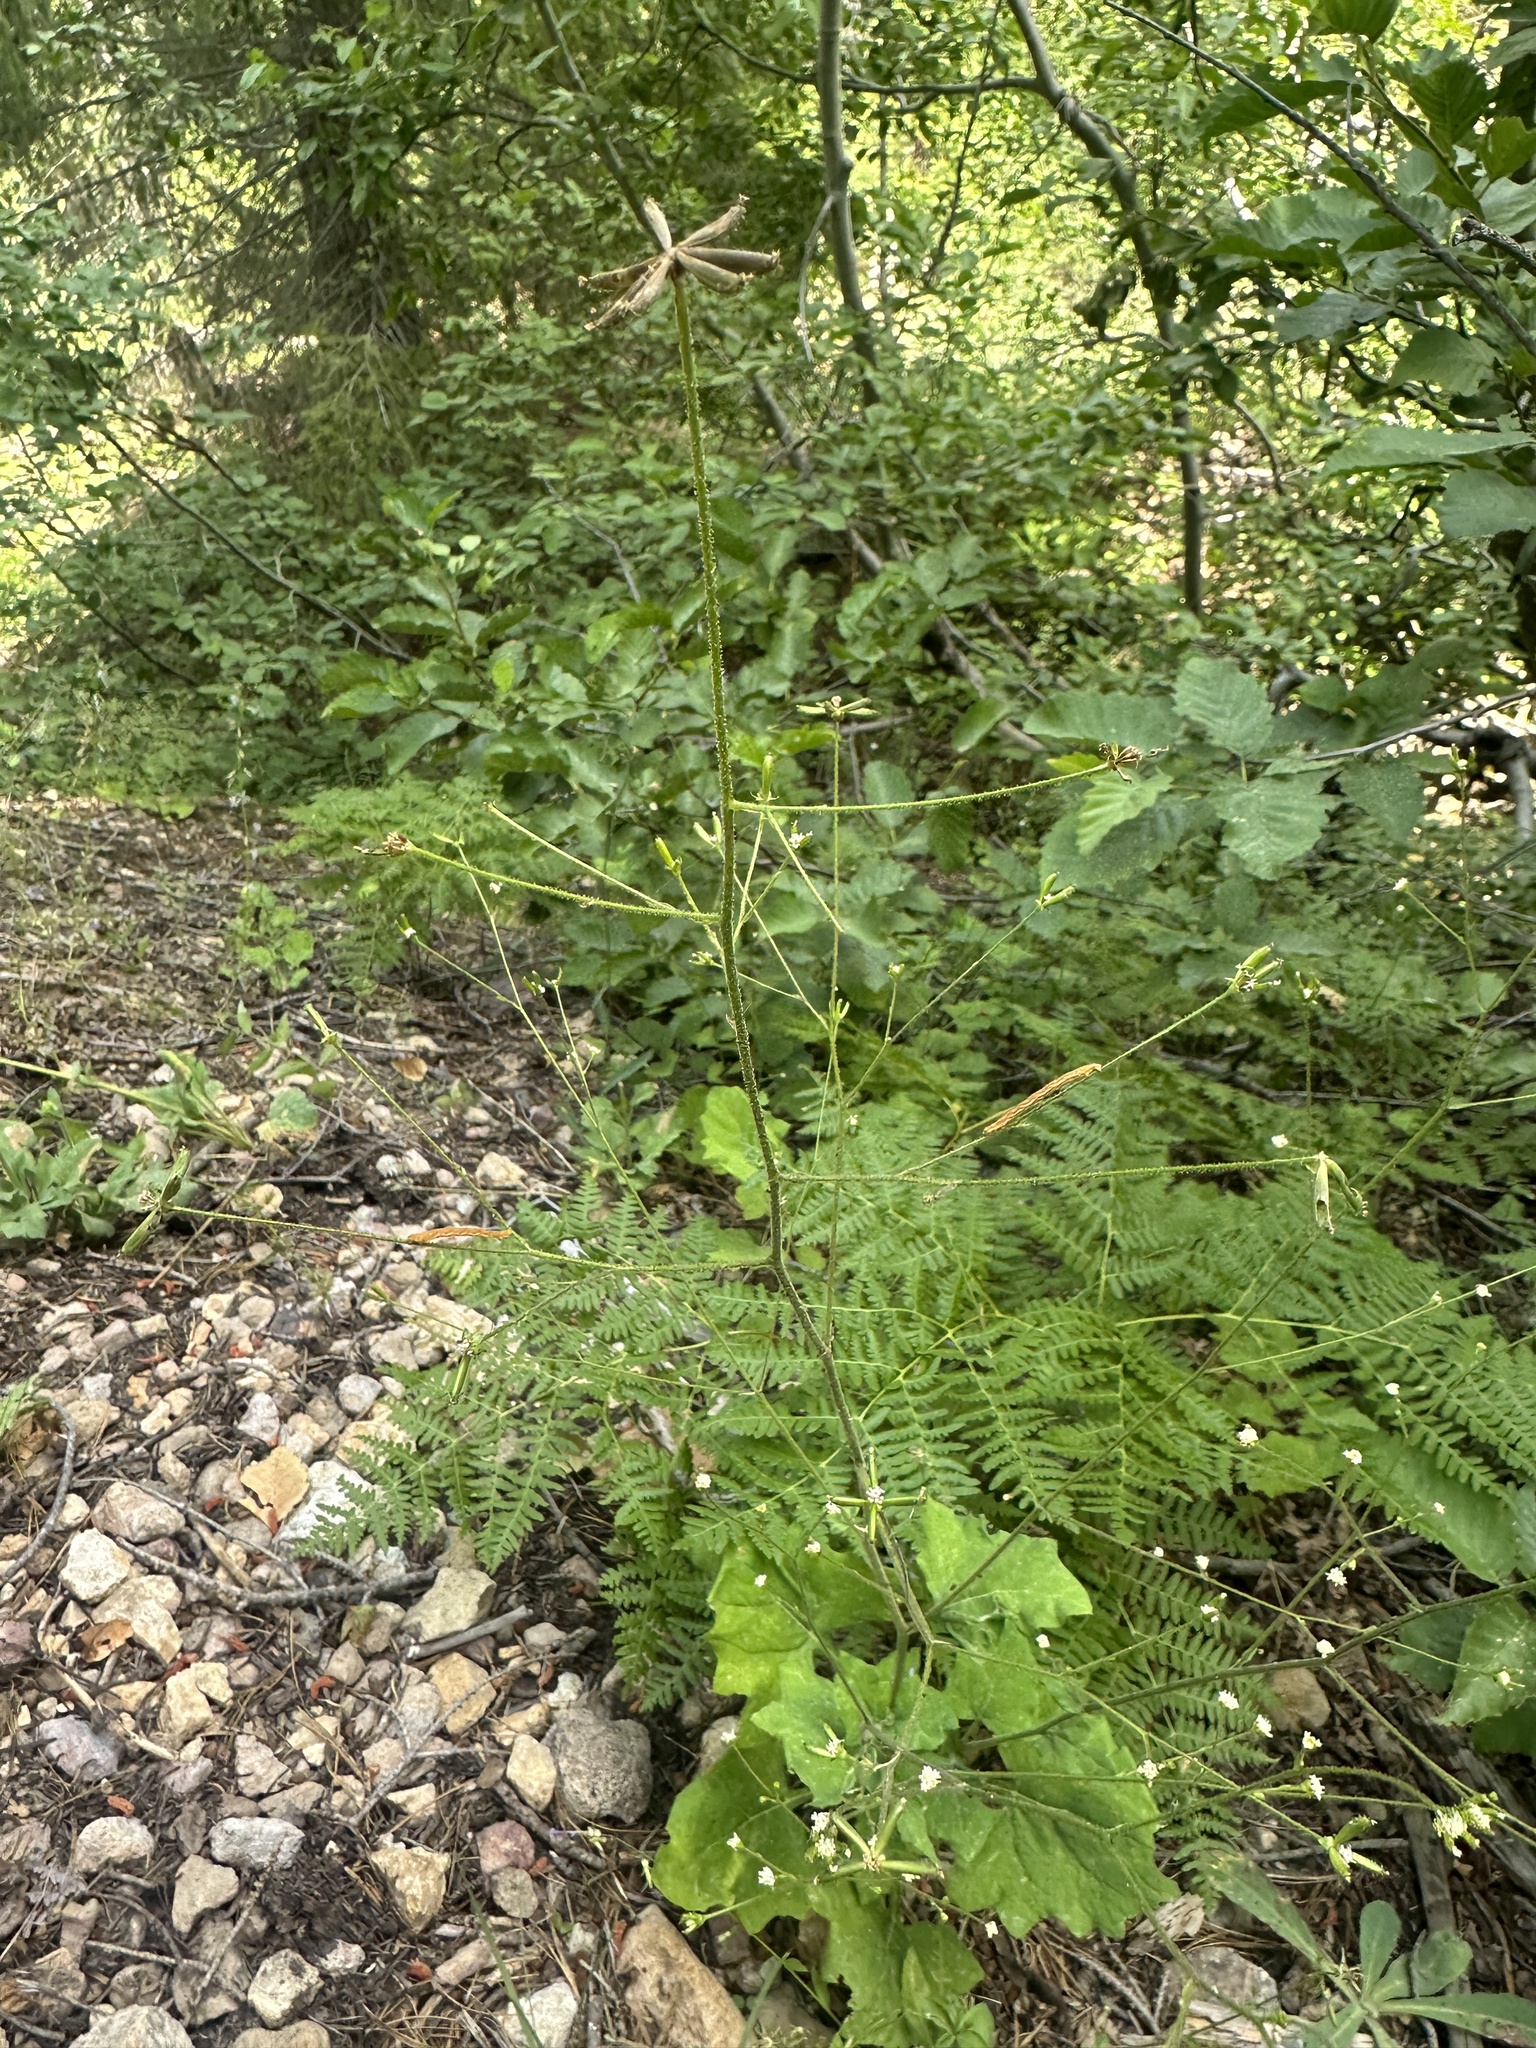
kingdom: Plantae
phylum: Tracheophyta
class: Magnoliopsida
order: Asterales
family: Asteraceae
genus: Adenocaulon
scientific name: Adenocaulon bicolor
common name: Trailplant
